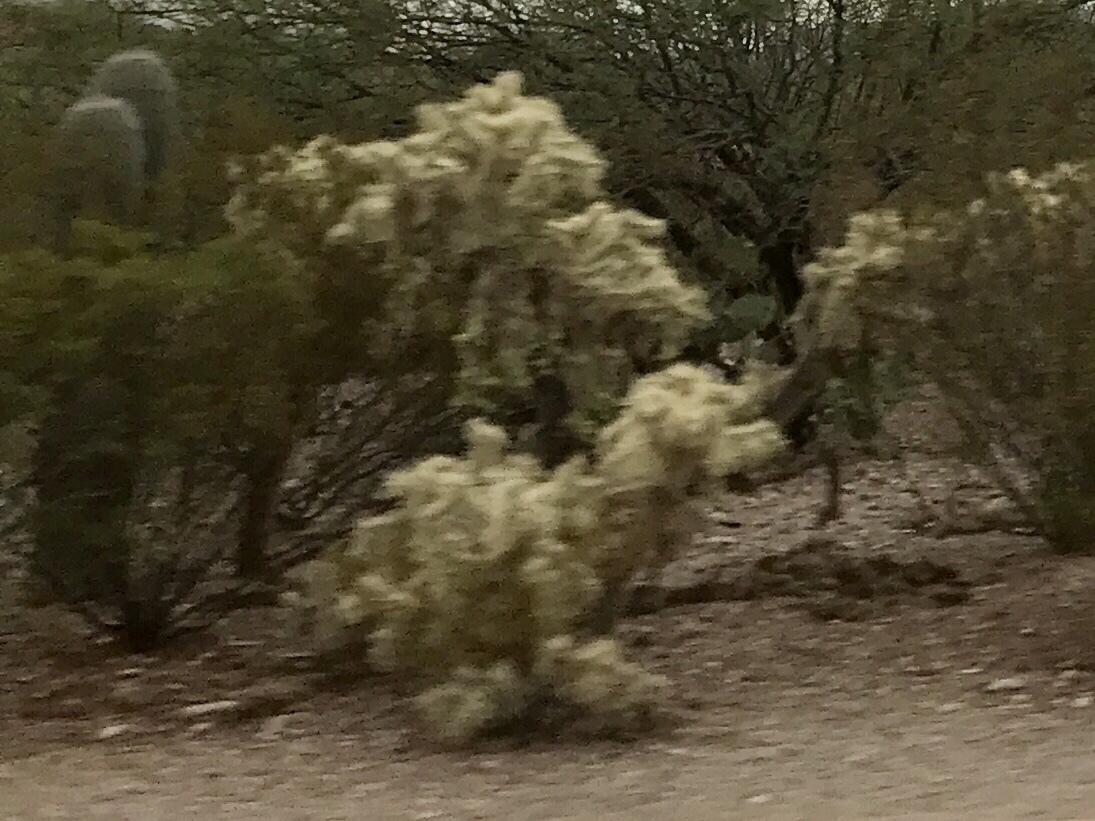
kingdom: Plantae
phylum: Tracheophyta
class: Magnoliopsida
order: Caryophyllales
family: Cactaceae
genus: Cylindropuntia
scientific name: Cylindropuntia fulgida
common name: Jumping cholla
